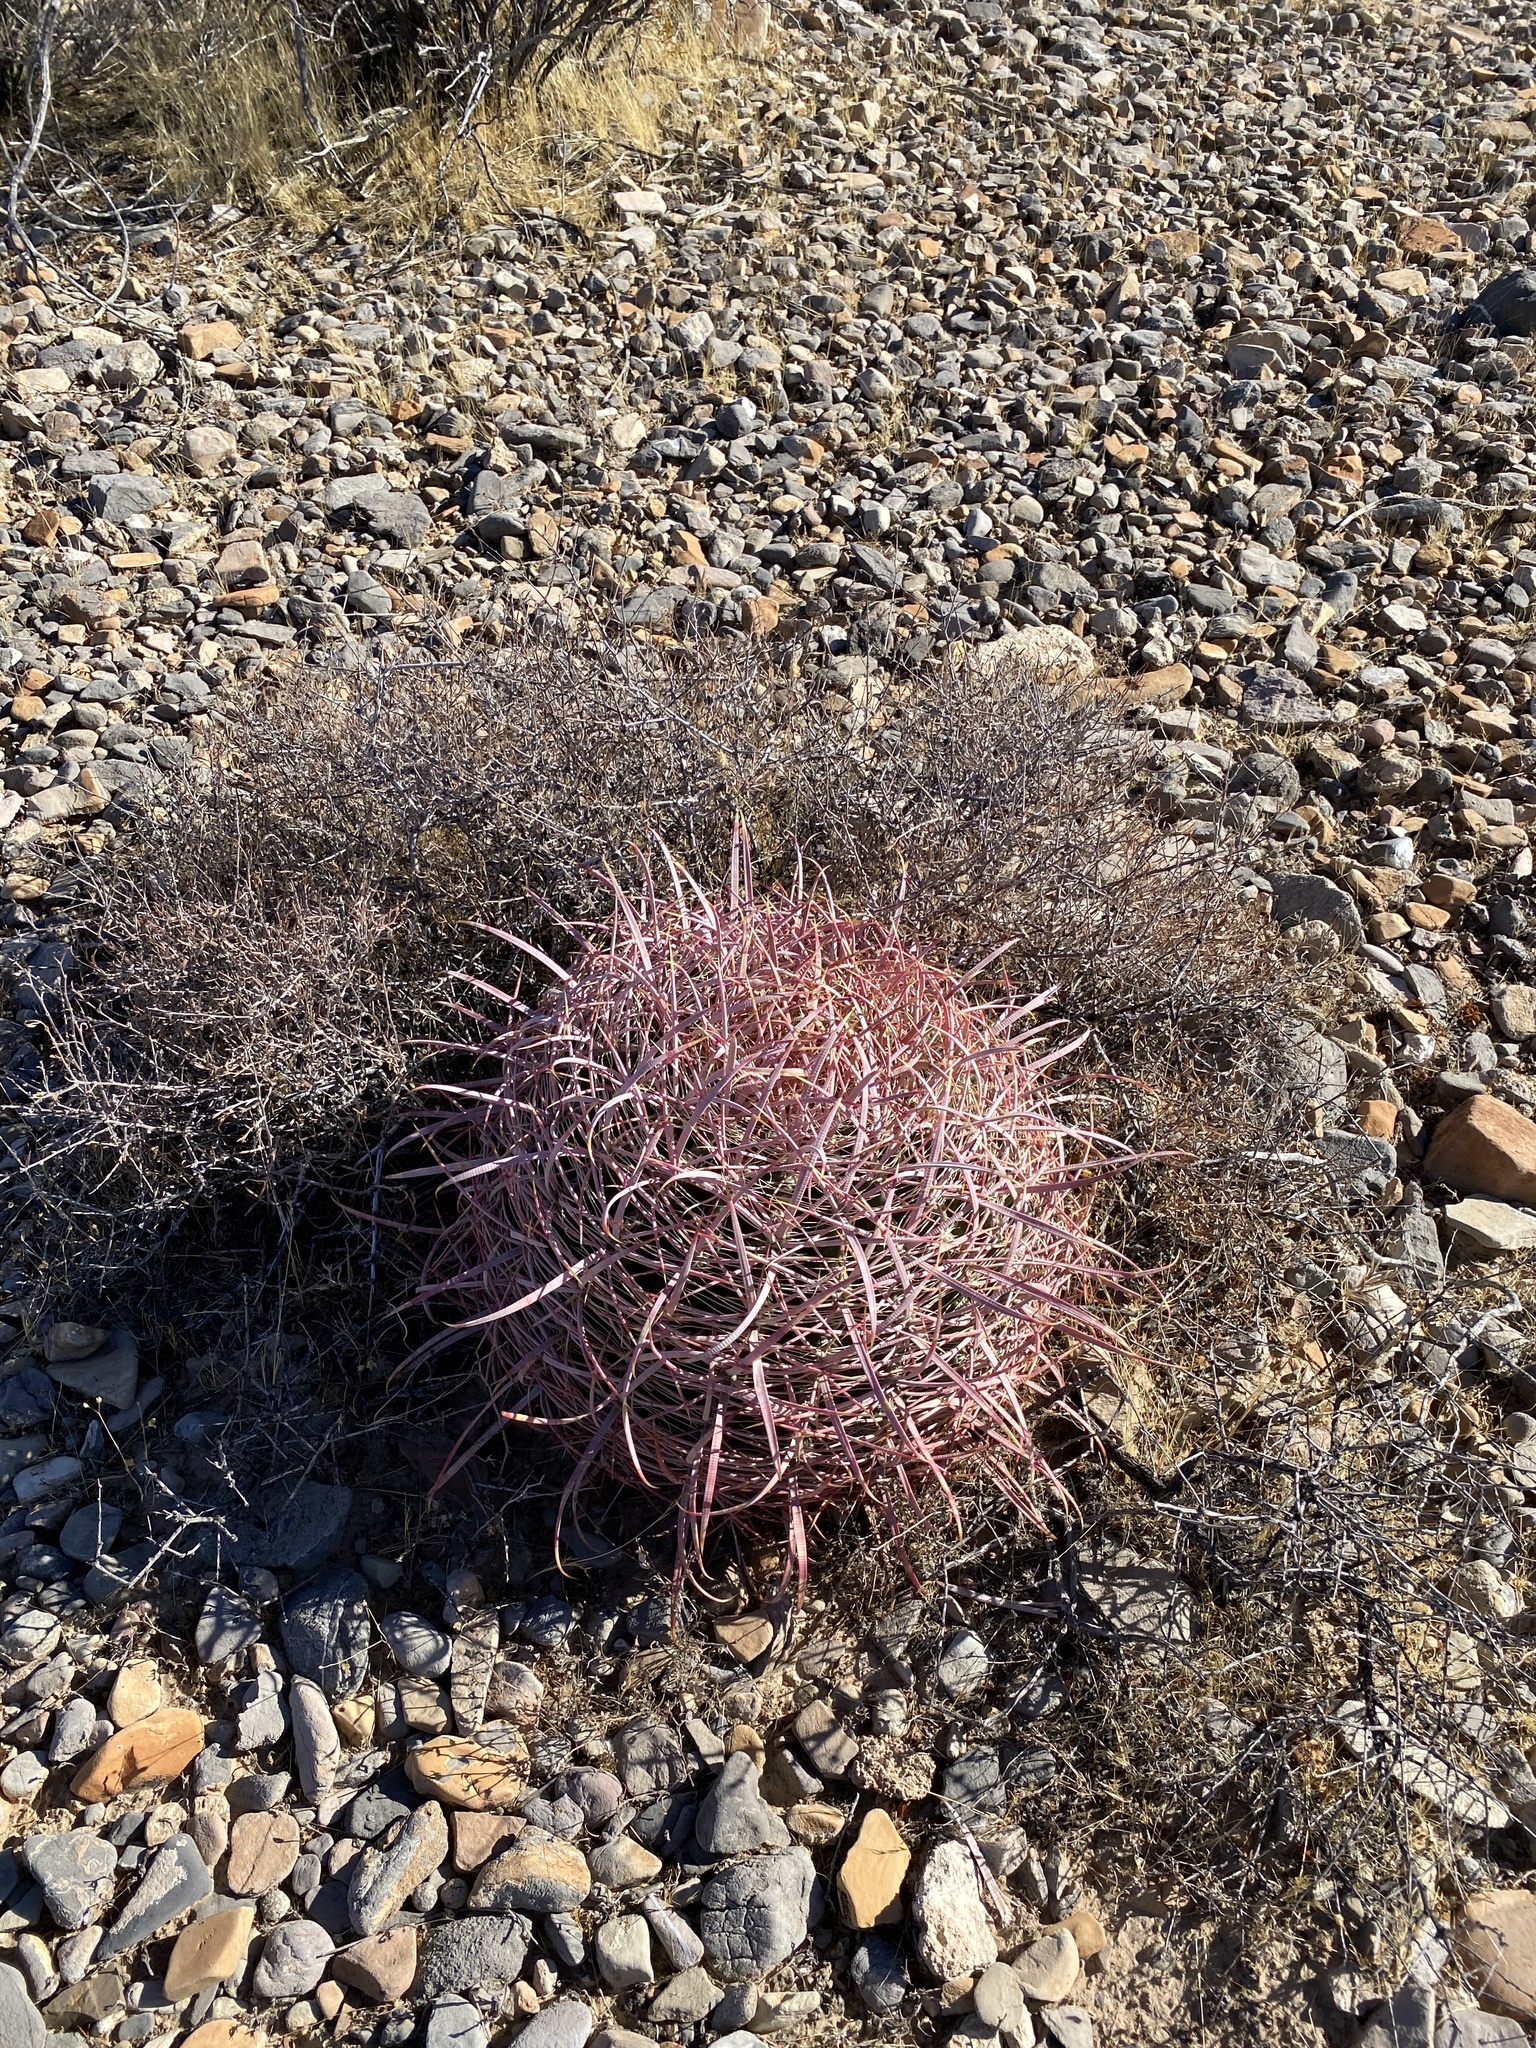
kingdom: Plantae
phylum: Tracheophyta
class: Magnoliopsida
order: Caryophyllales
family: Cactaceae
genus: Ferocactus
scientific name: Ferocactus cylindraceus
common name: California barrel cactus
